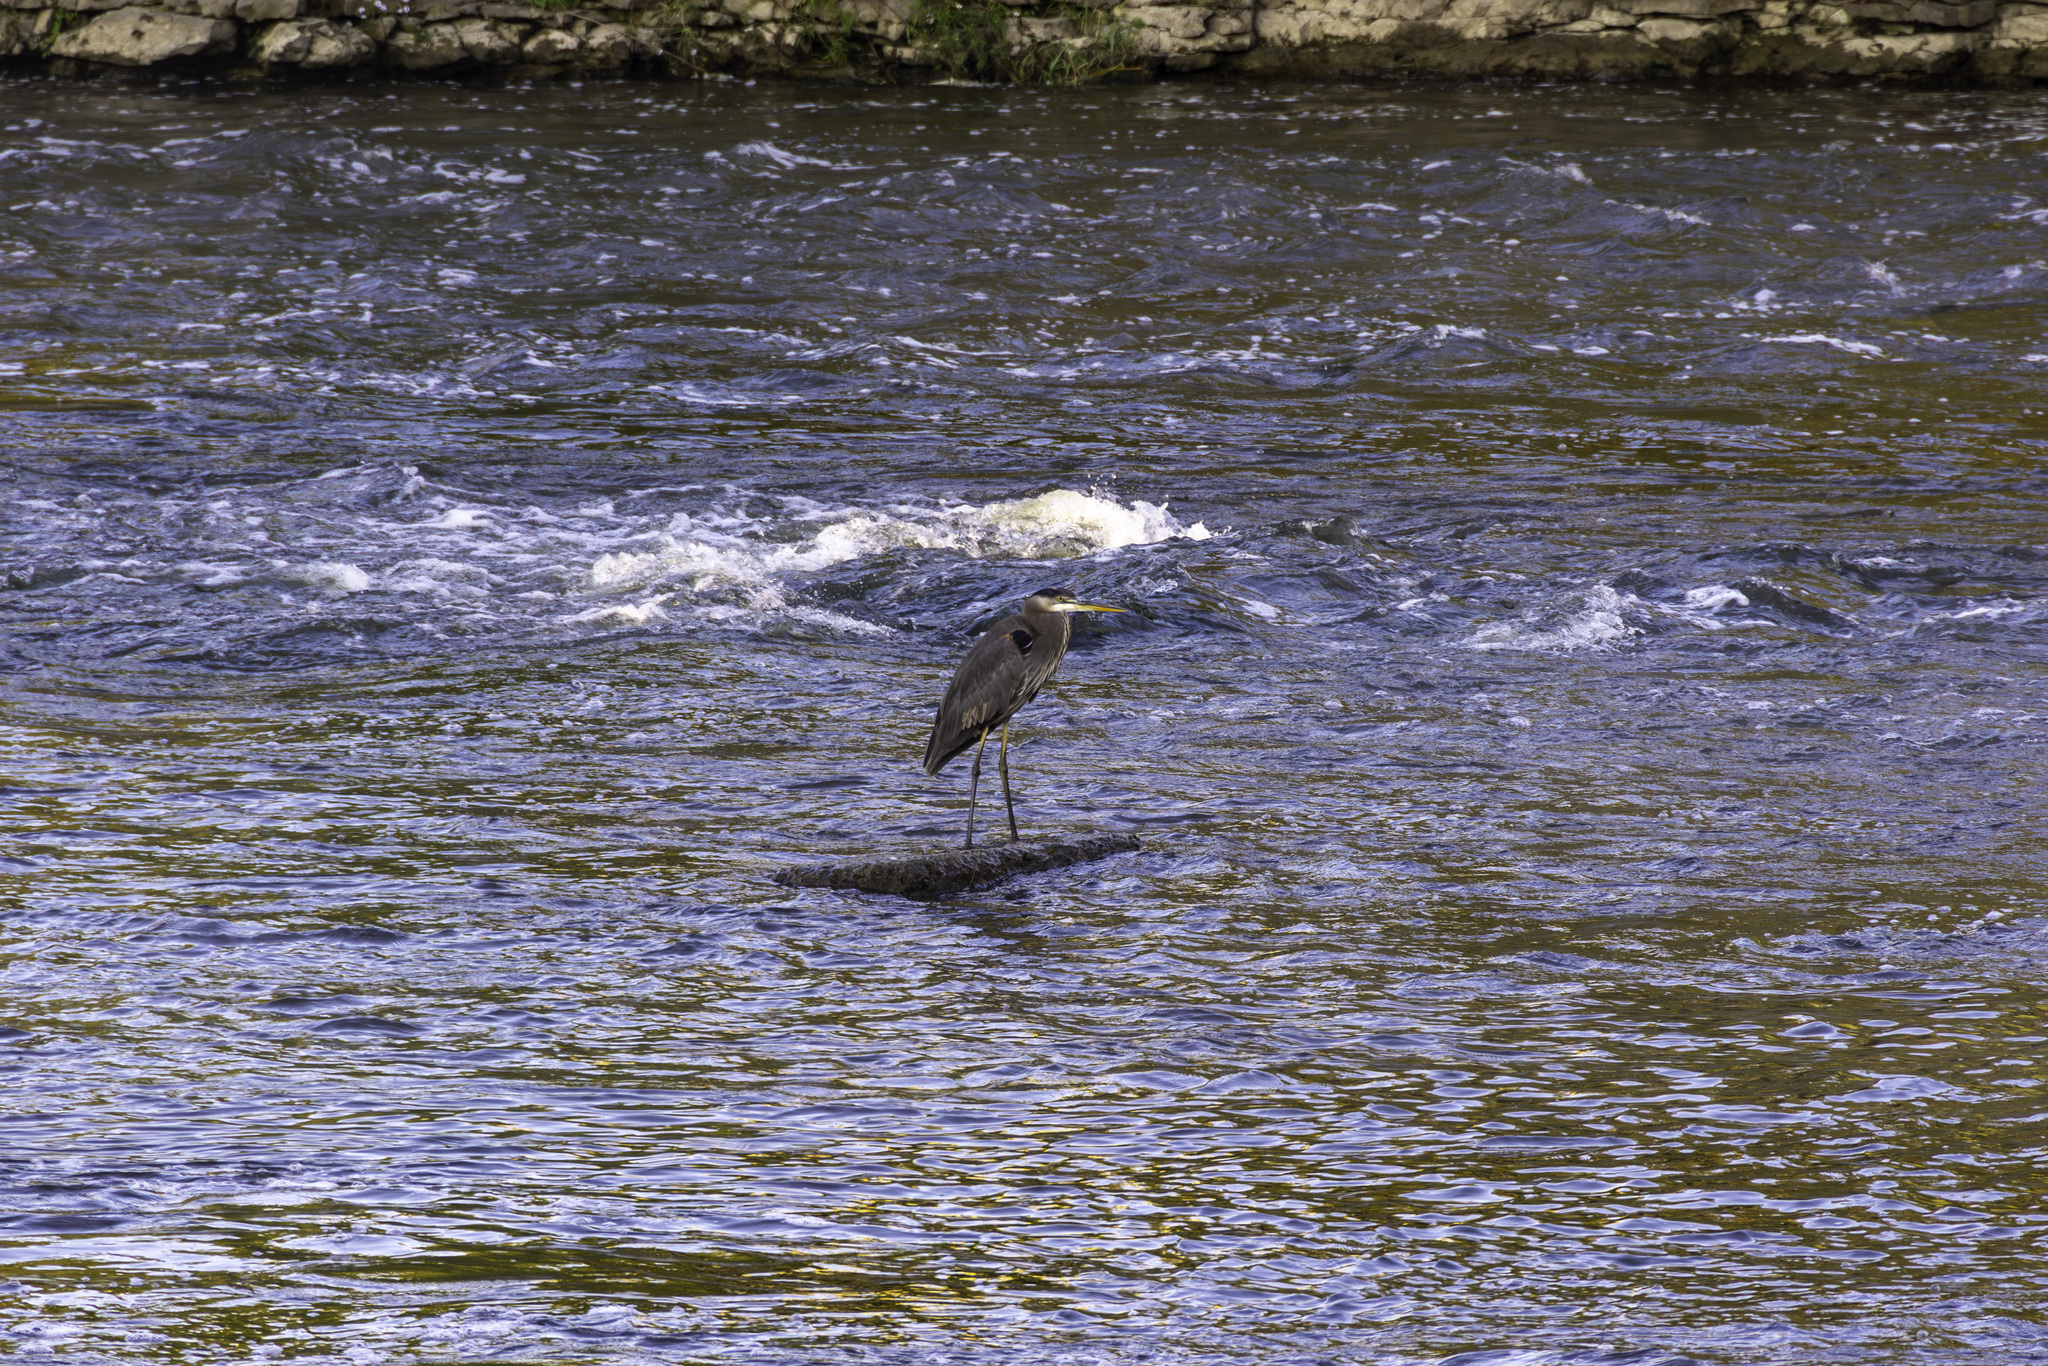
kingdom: Animalia
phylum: Chordata
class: Aves
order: Pelecaniformes
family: Ardeidae
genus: Ardea
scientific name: Ardea herodias
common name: Great blue heron
